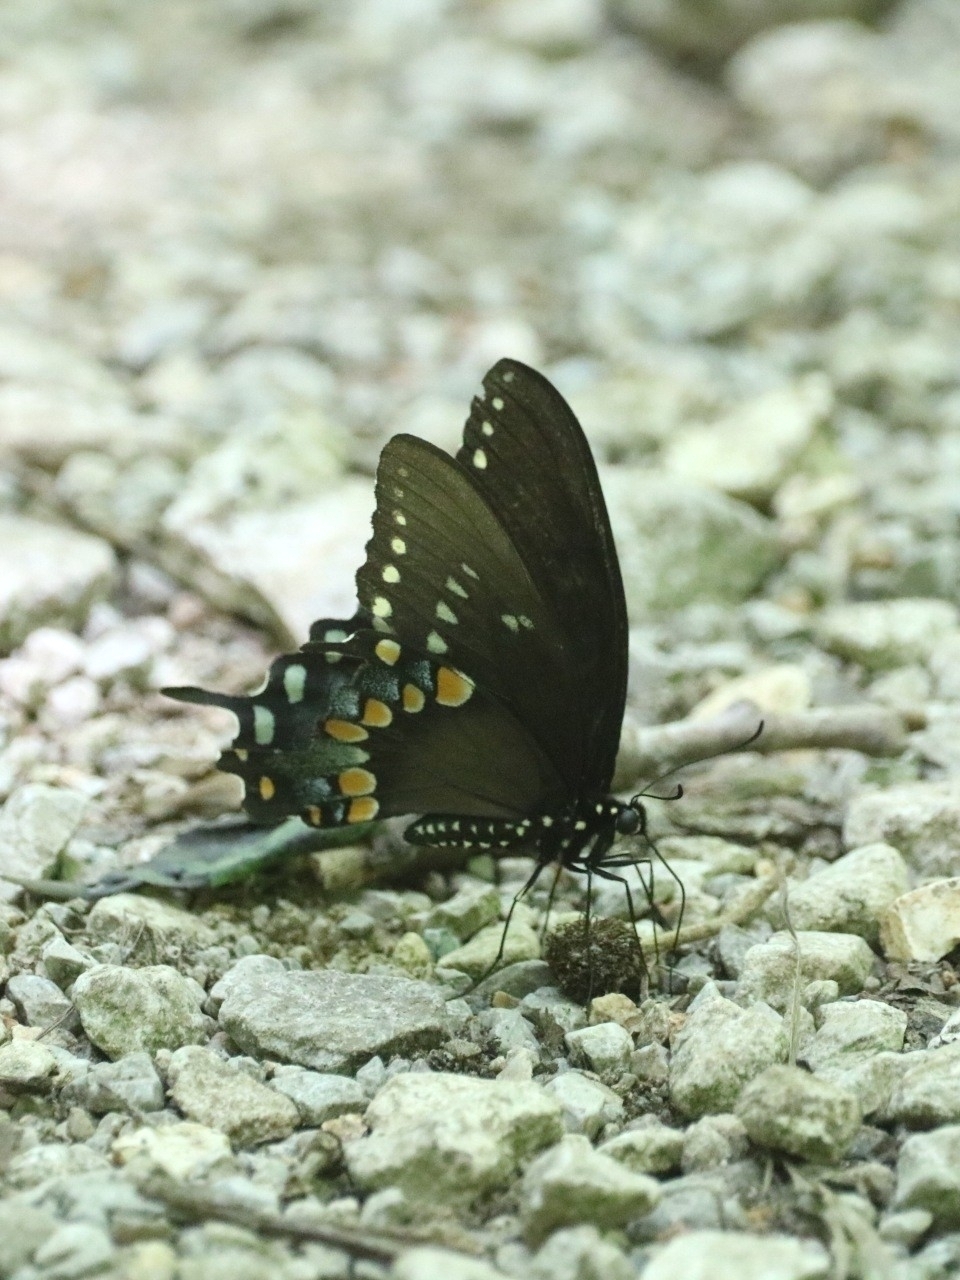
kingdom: Animalia
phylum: Arthropoda
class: Insecta
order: Lepidoptera
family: Papilionidae
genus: Papilio
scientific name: Papilio troilus
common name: Spicebush swallowtail
